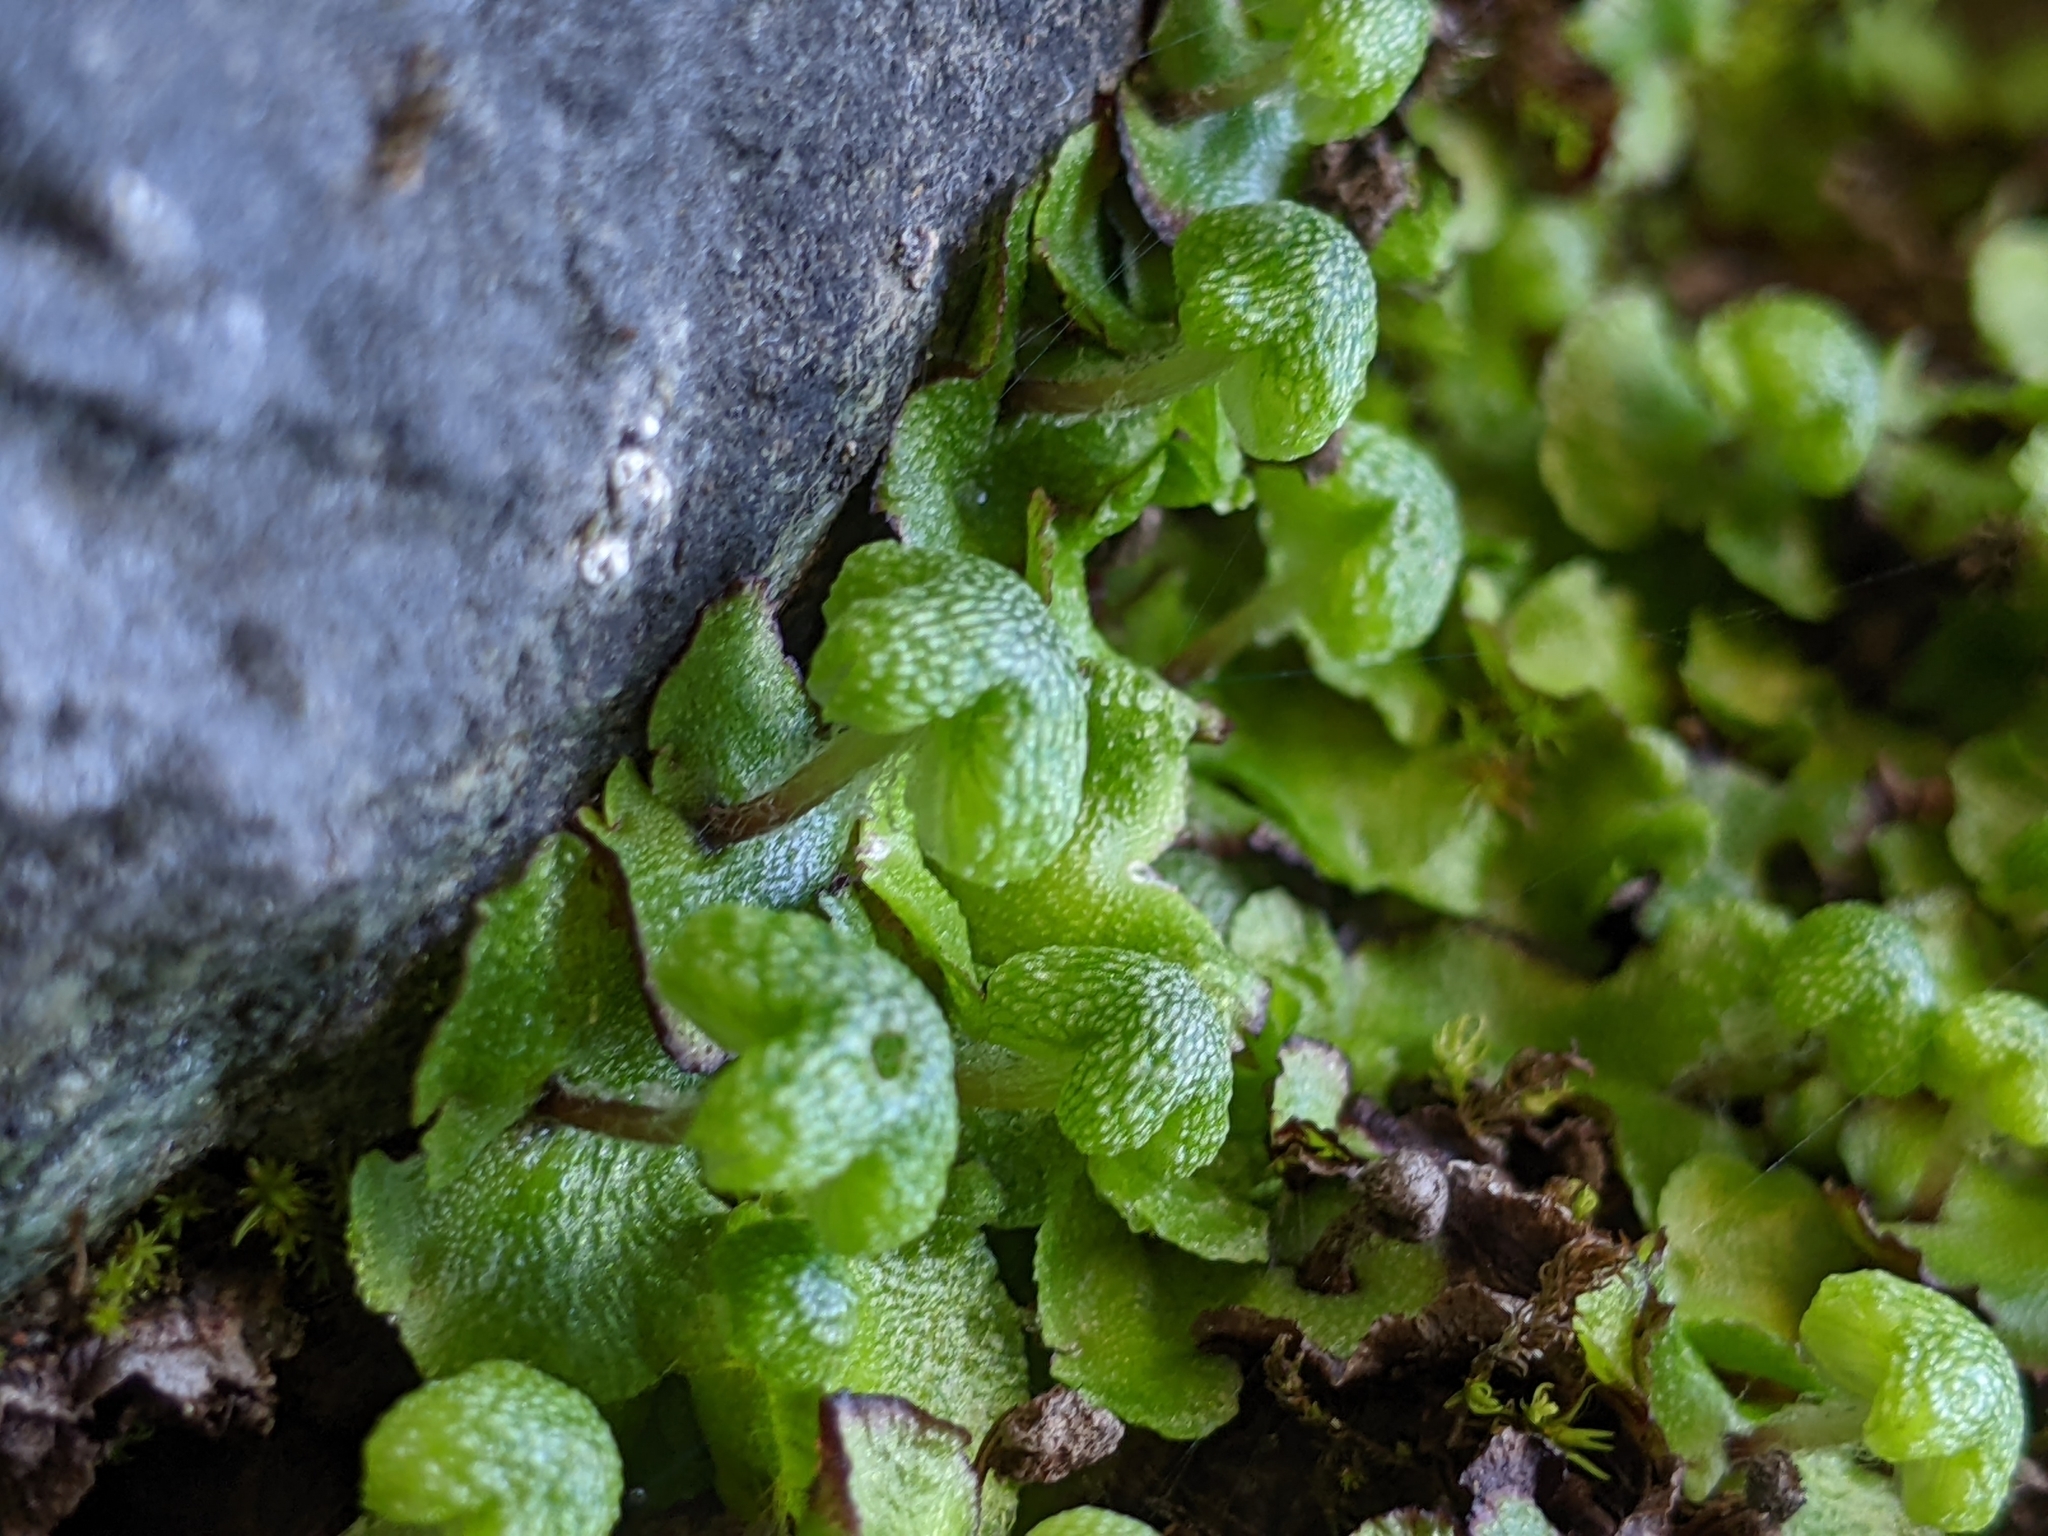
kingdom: Plantae
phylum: Marchantiophyta
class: Marchantiopsida
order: Marchantiales
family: Aytoniaceae
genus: Asterella
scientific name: Asterella californica
